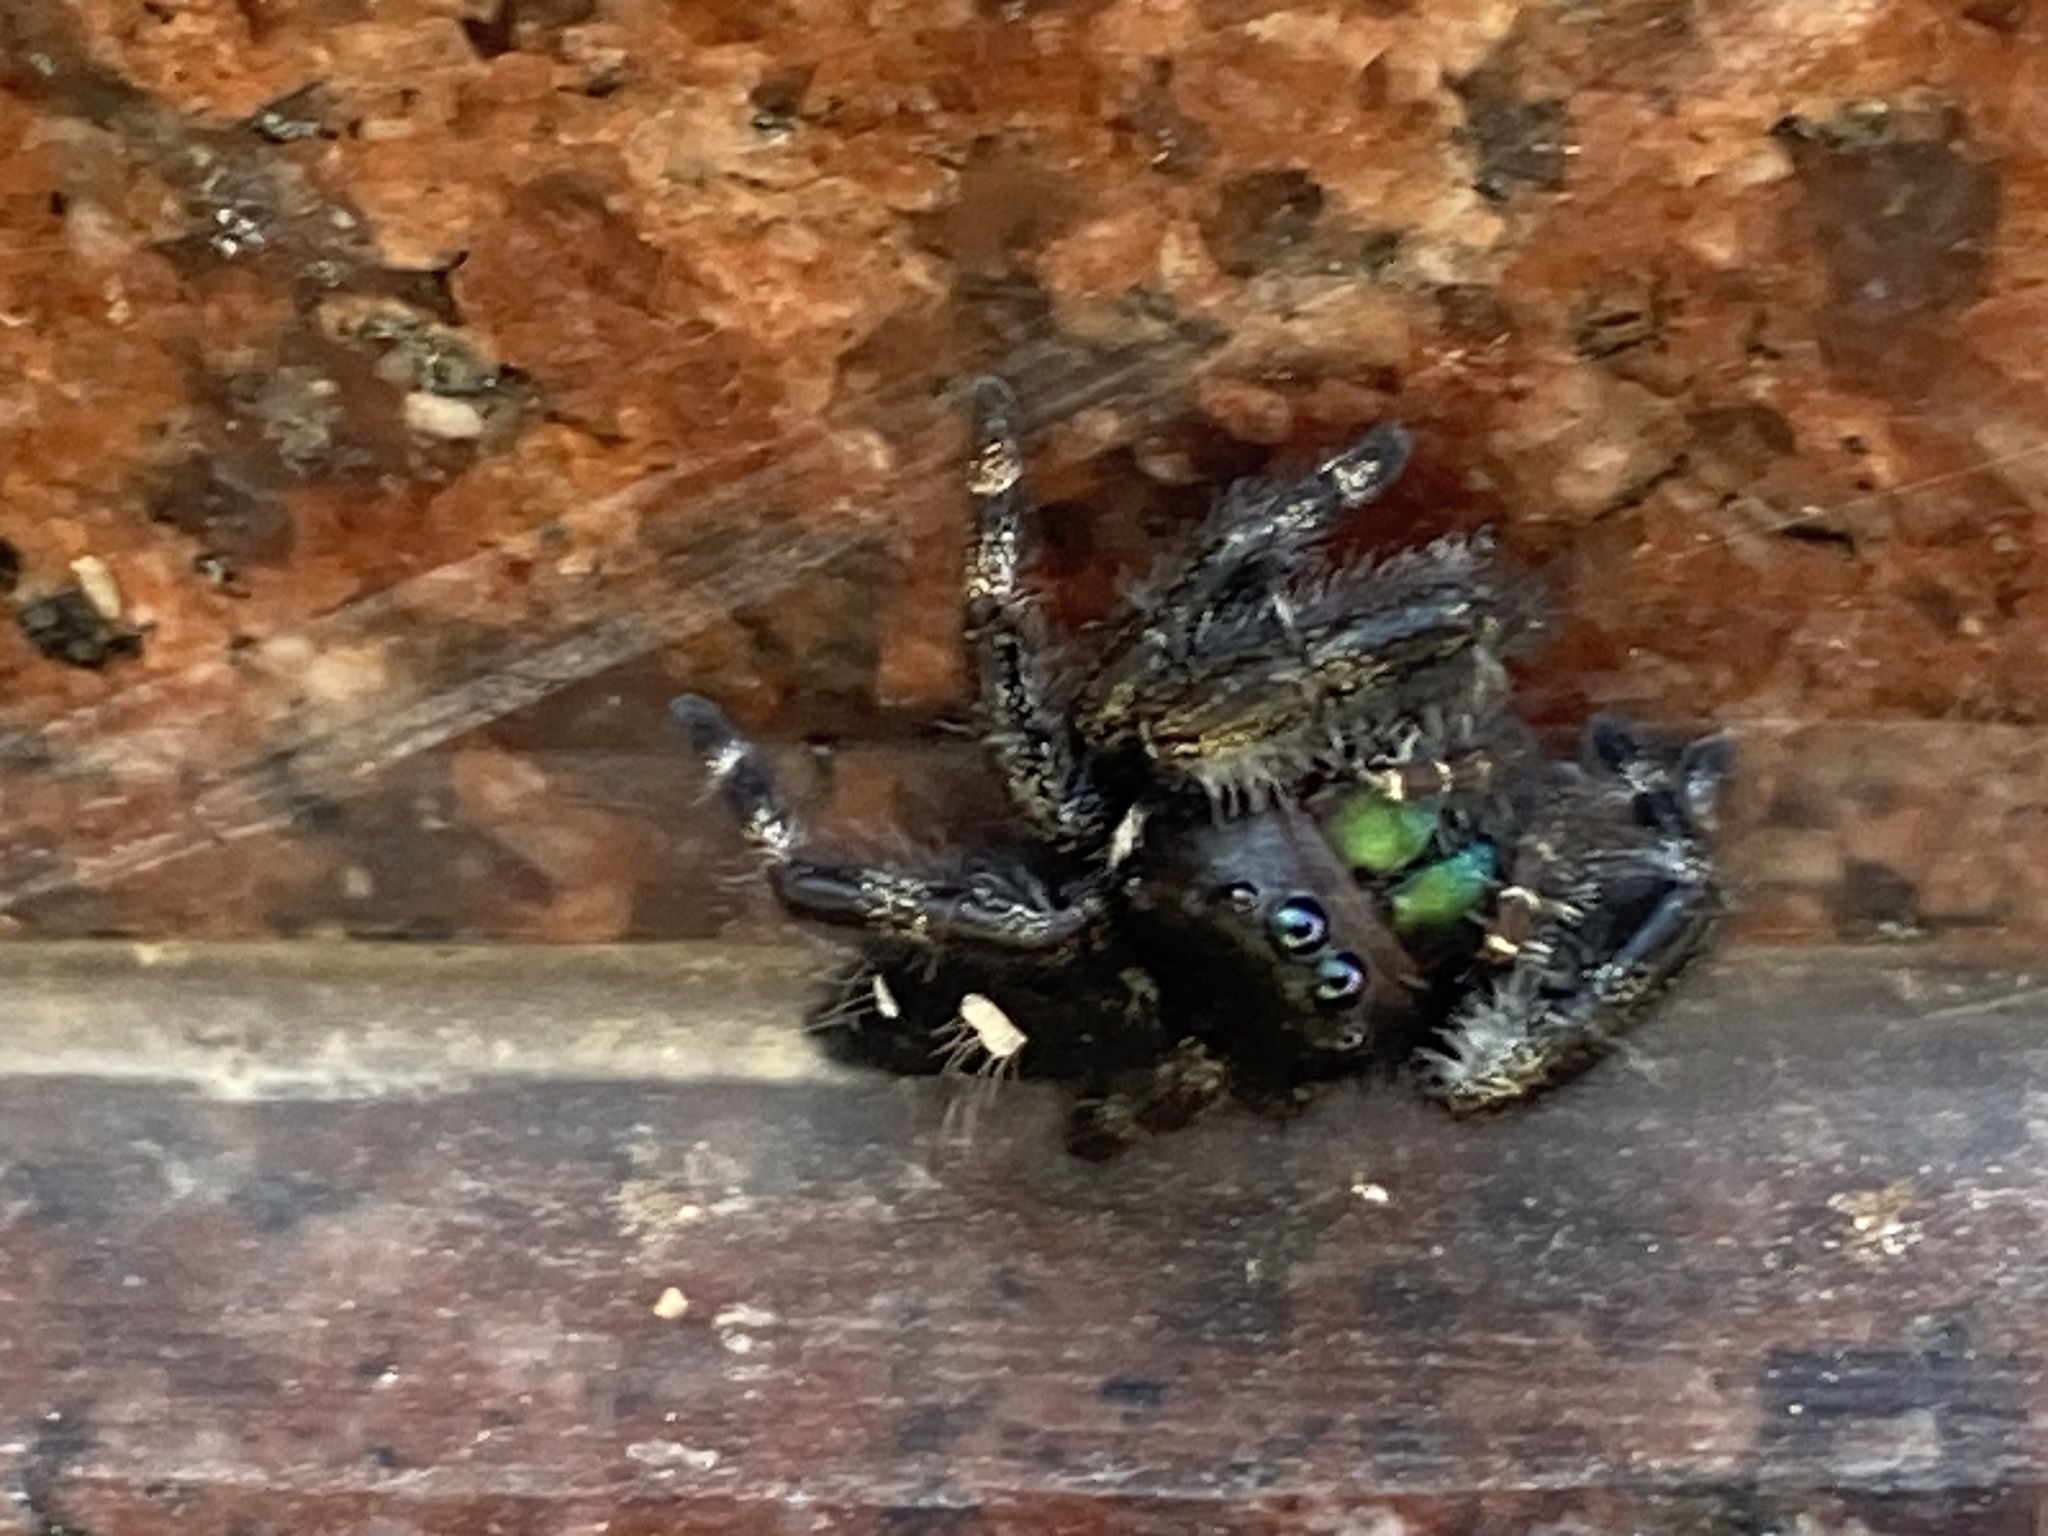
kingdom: Animalia
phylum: Arthropoda
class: Arachnida
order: Araneae
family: Salticidae
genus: Phidippus
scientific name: Phidippus audax
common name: Bold jumper
